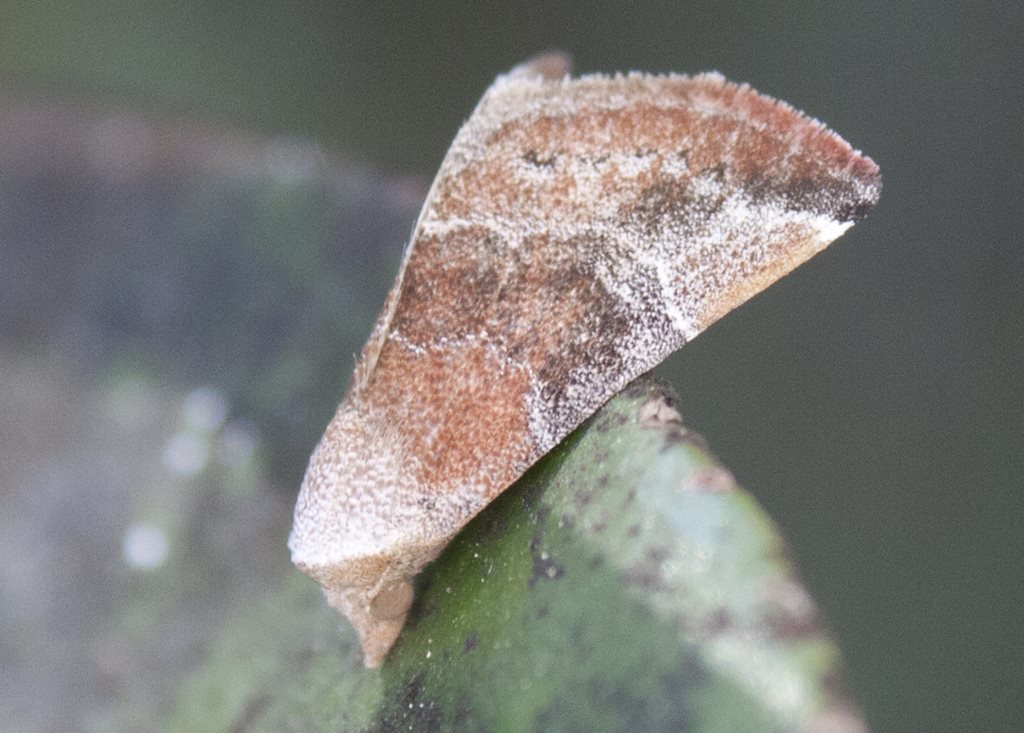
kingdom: Animalia
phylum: Arthropoda
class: Insecta
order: Lepidoptera
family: Noctuidae
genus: Mataeomera
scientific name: Mataeomera mesotaenia
